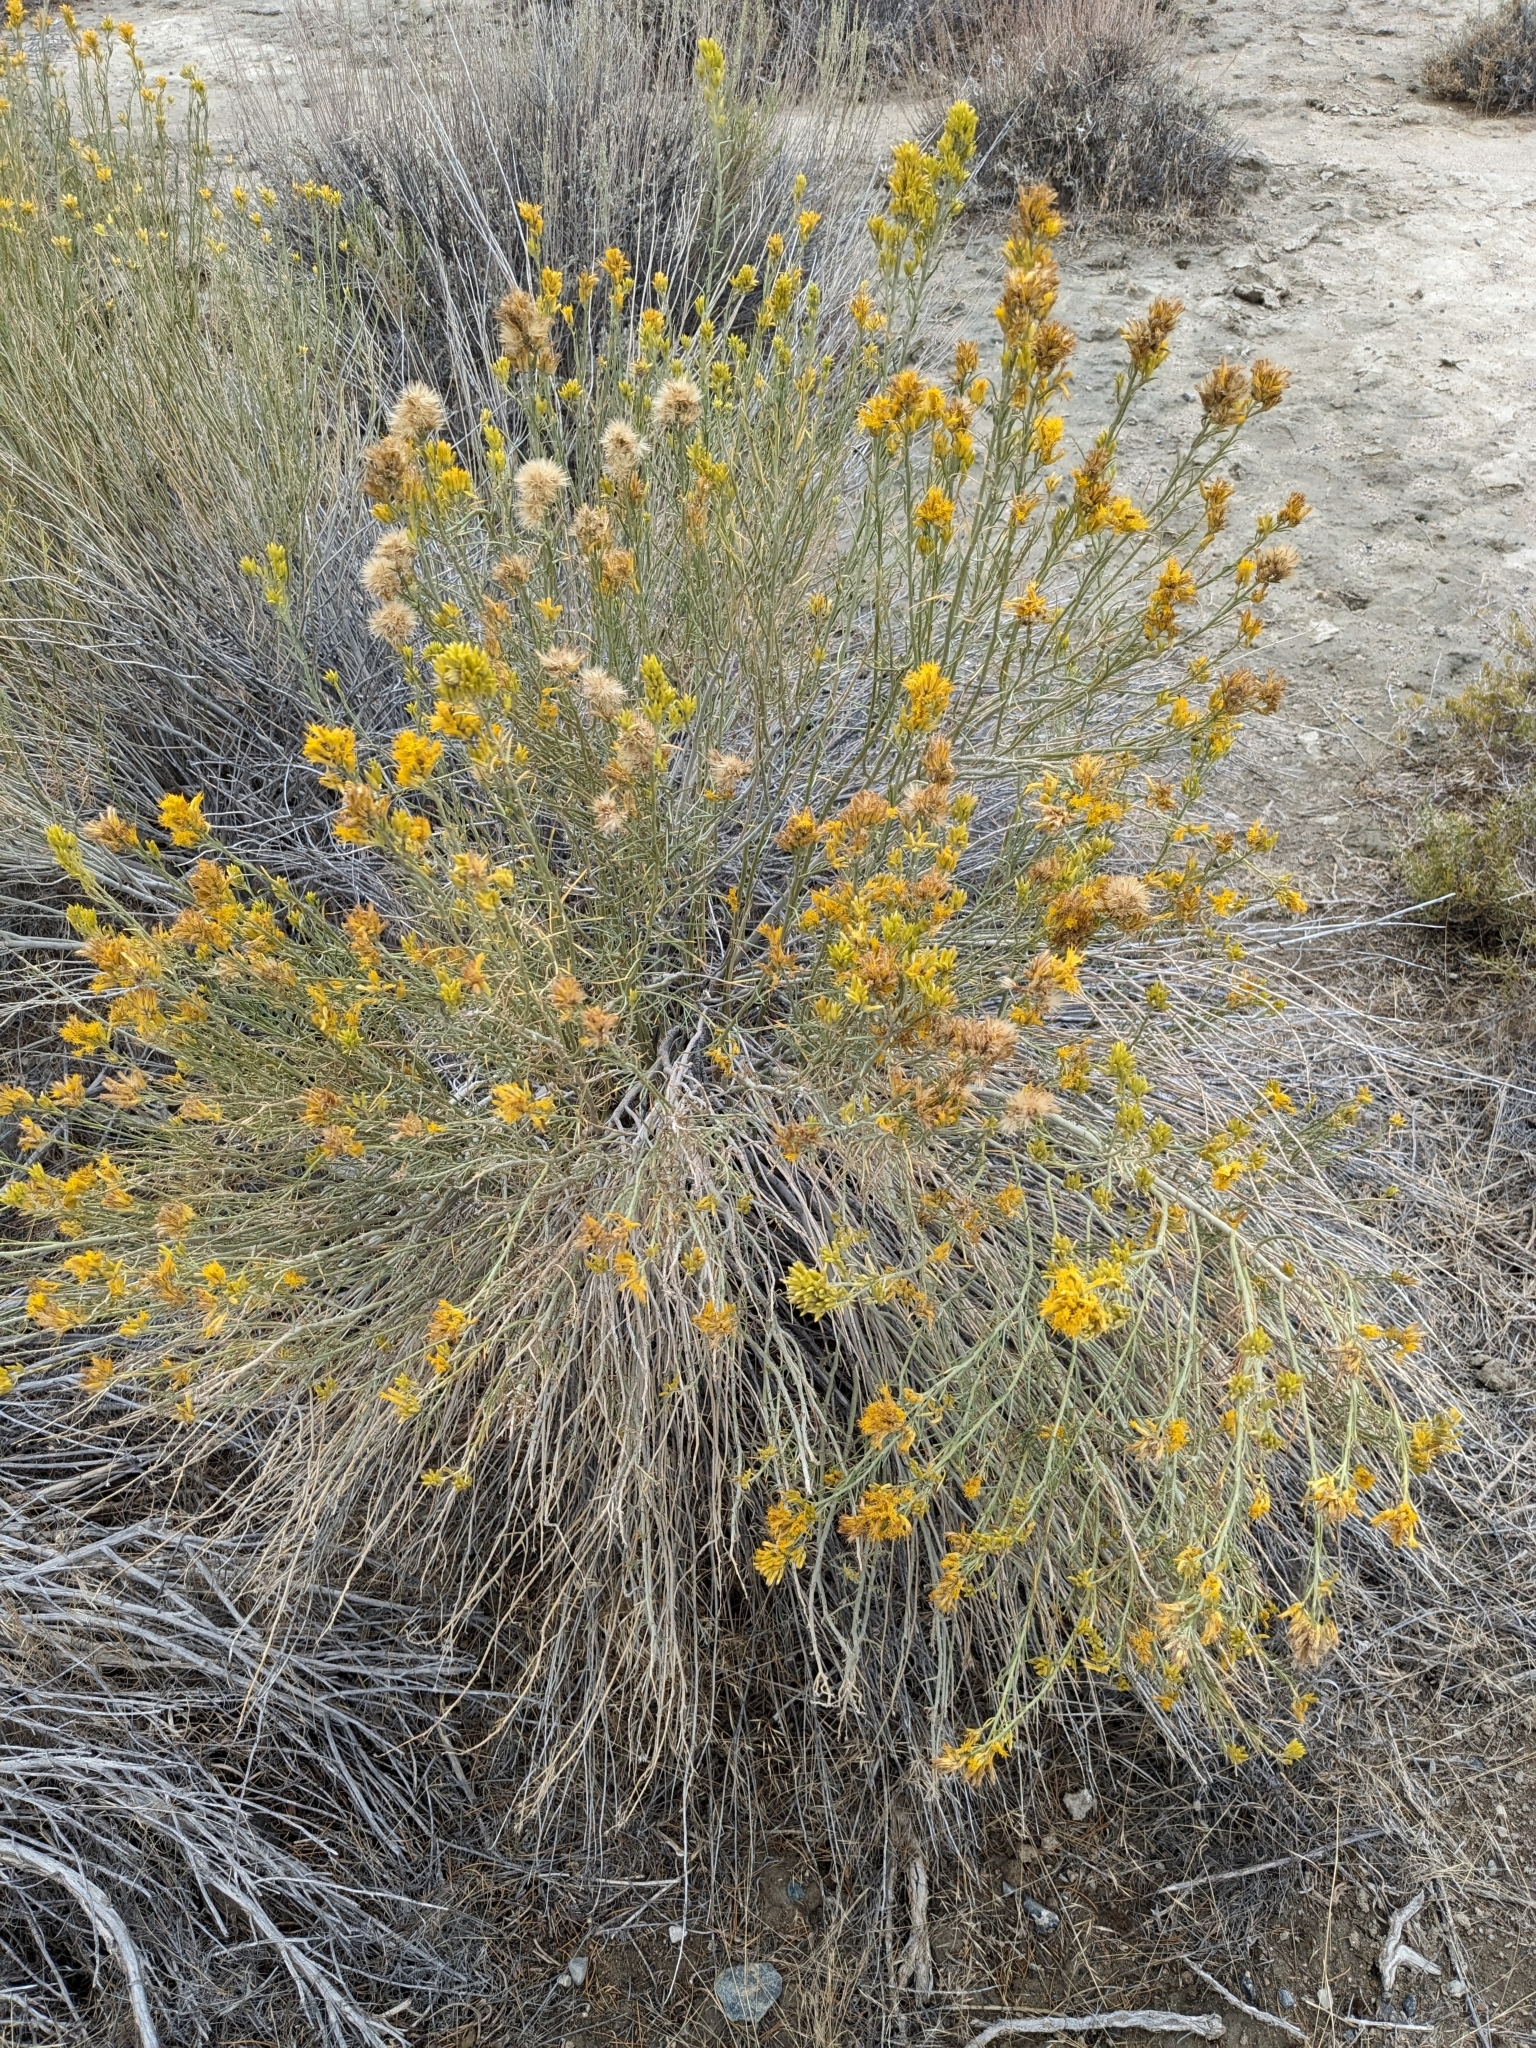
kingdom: Plantae
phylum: Tracheophyta
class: Magnoliopsida
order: Asterales
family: Asteraceae
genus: Chrysothamnus
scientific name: Chrysothamnus viscidiflorus
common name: Yellow rabbitbrush
